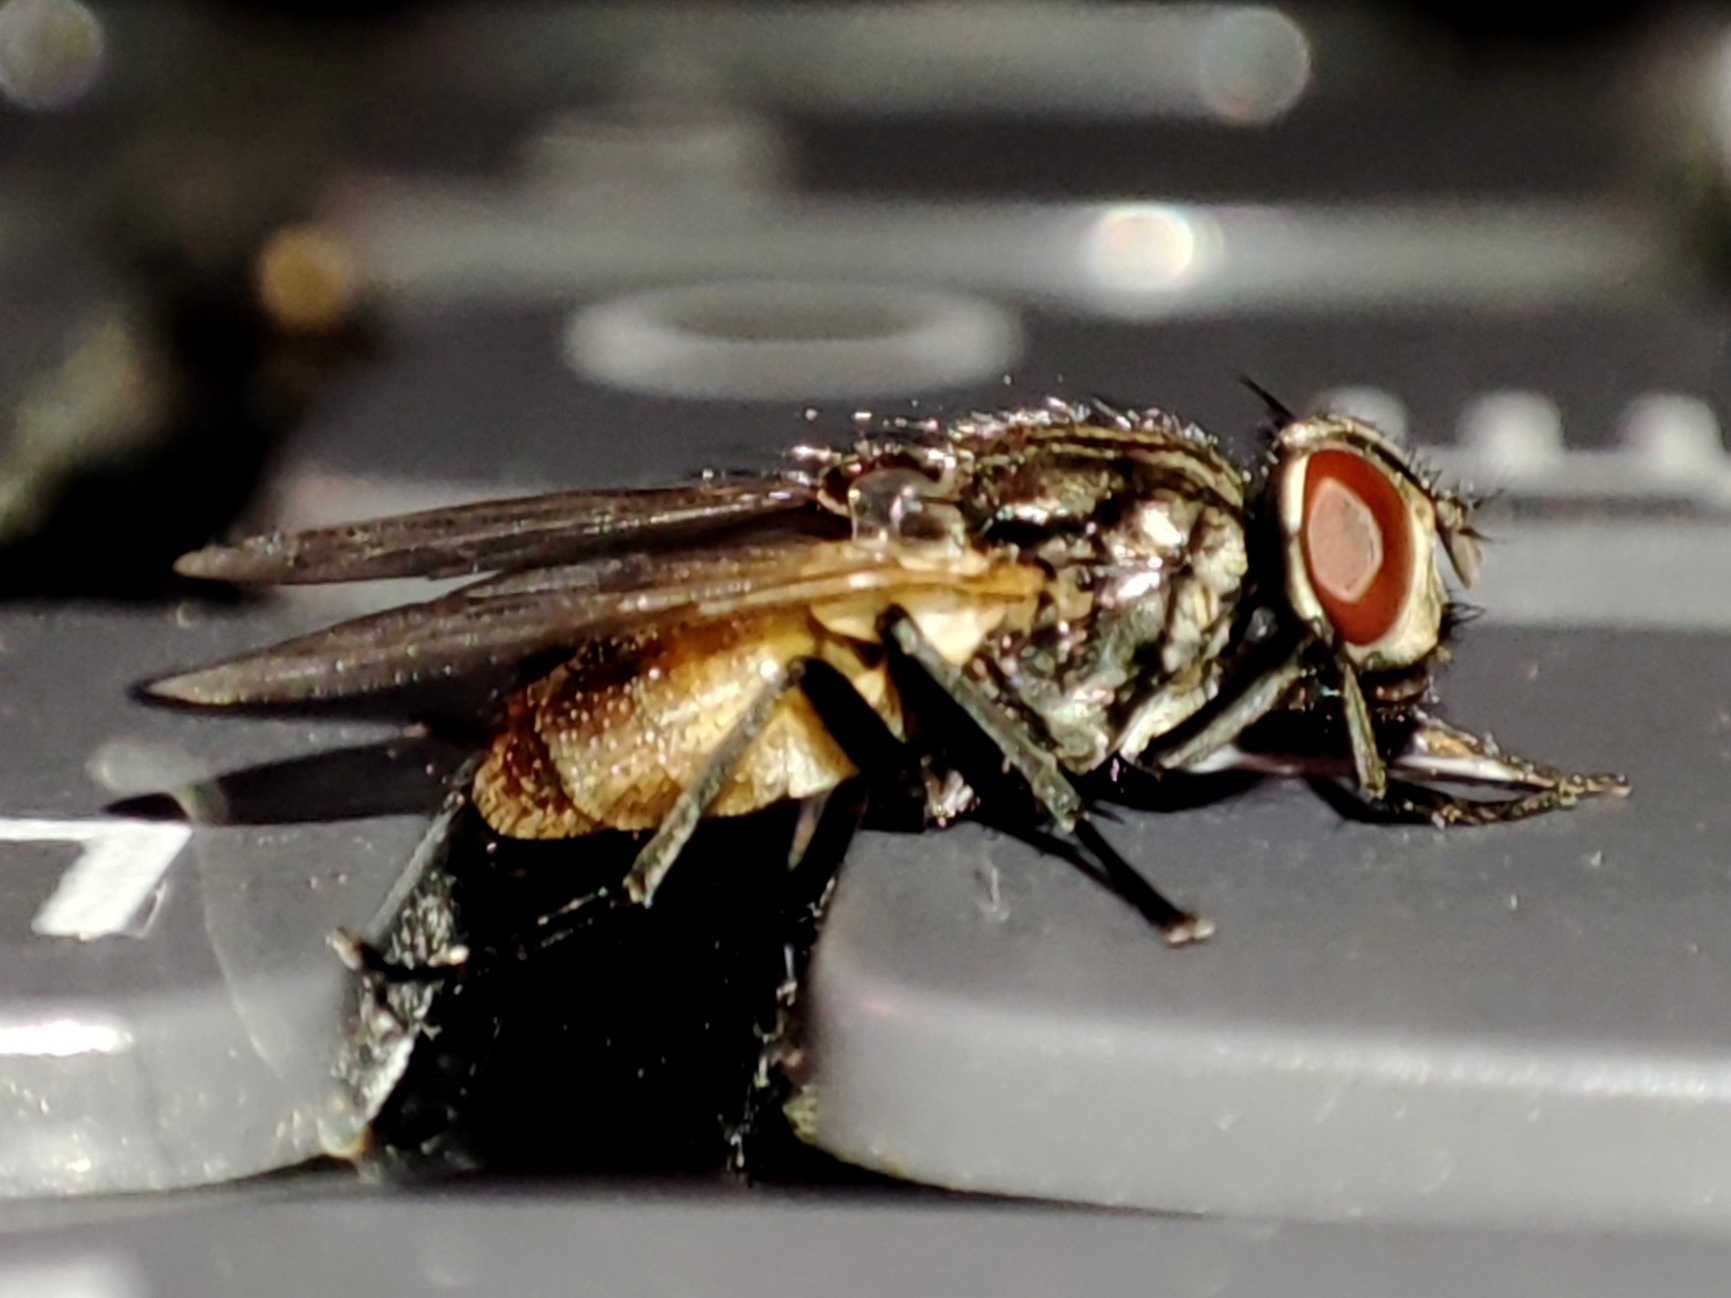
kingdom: Animalia
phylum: Arthropoda
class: Insecta
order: Diptera
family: Muscidae
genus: Musca
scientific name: Musca domestica
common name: House fly
